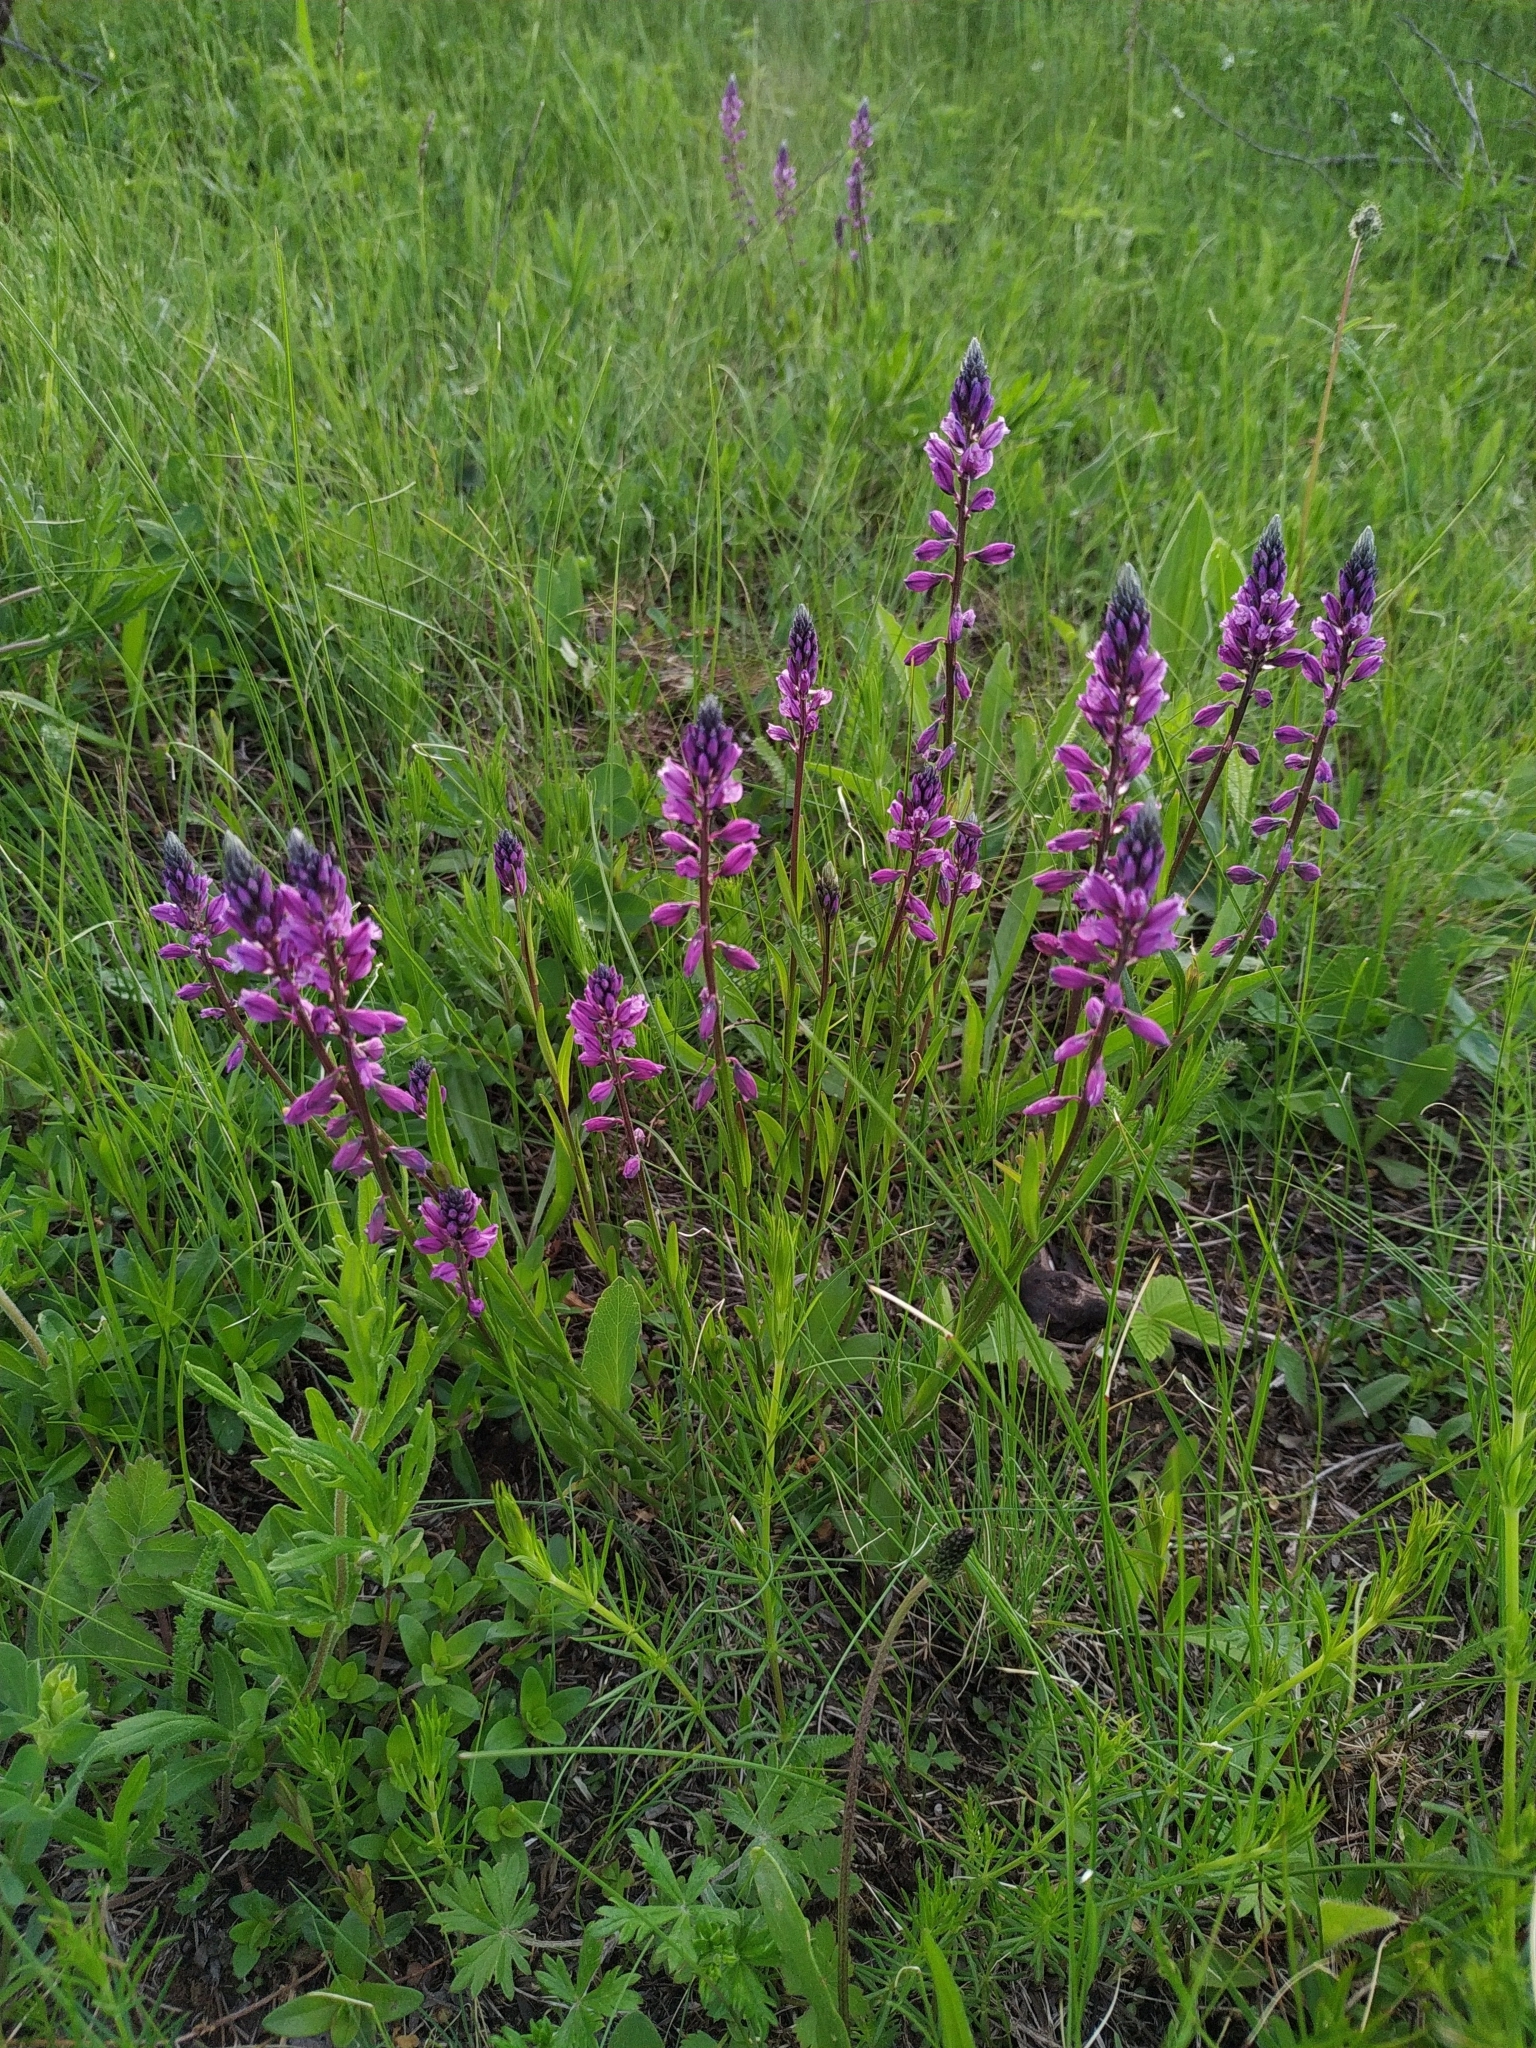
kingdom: Plantae
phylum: Tracheophyta
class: Magnoliopsida
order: Fabales
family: Polygalaceae
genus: Polygala
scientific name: Polygala comosa
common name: Tufted milkwort
